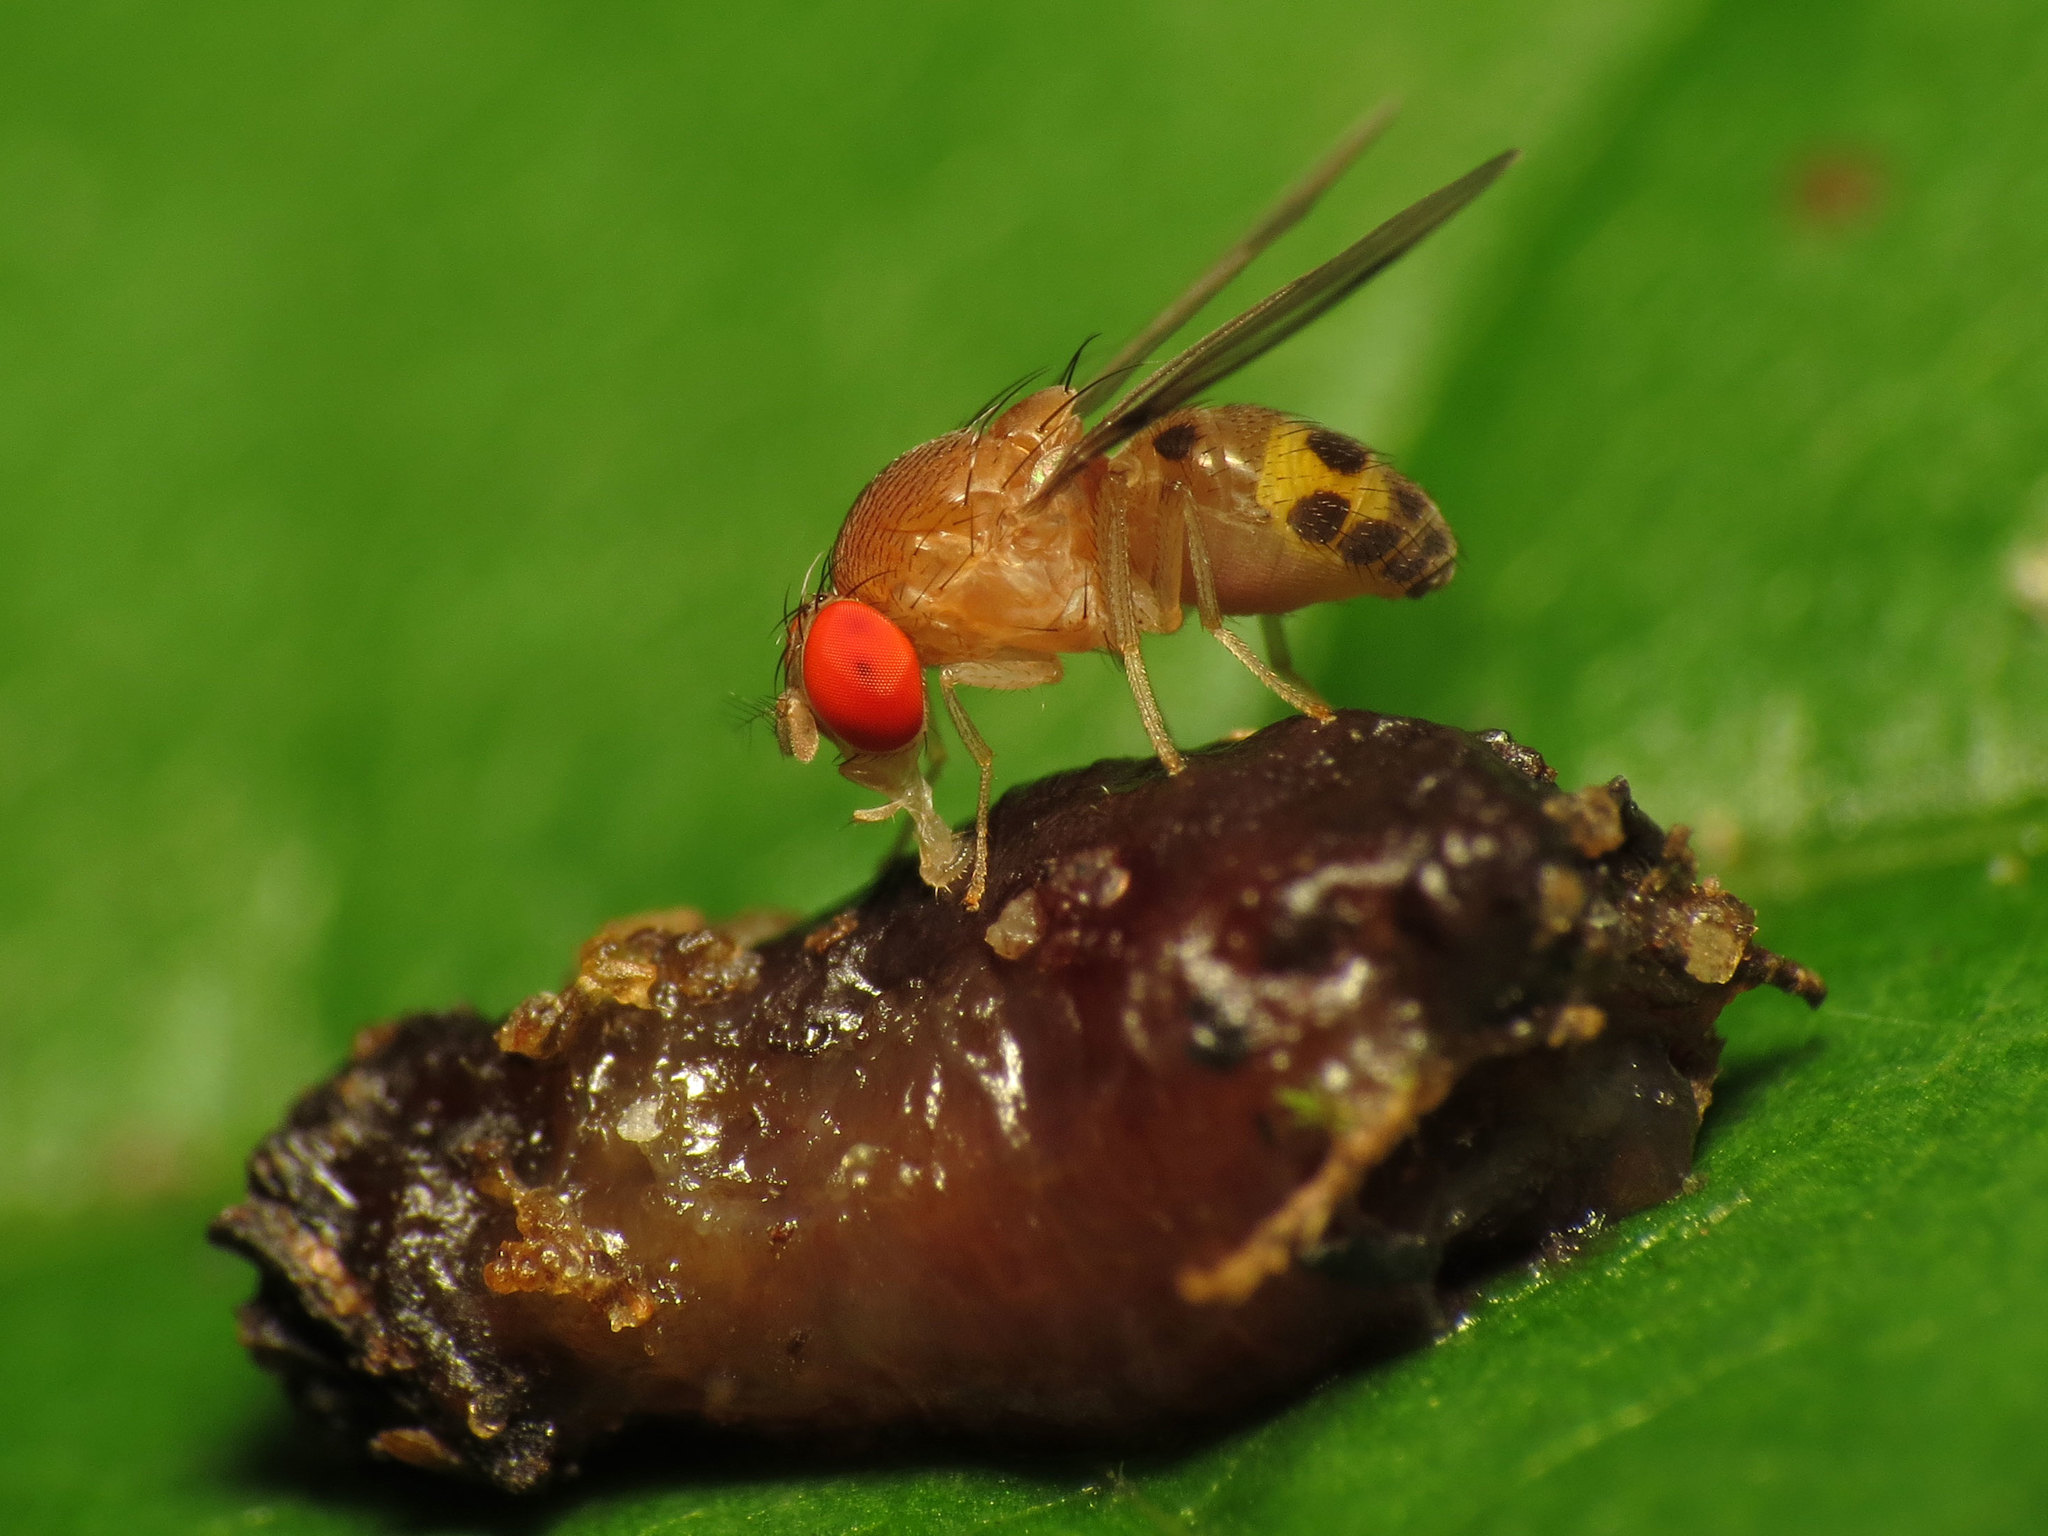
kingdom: Animalia
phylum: Arthropoda
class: Insecta
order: Diptera
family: Drosophilidae
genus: Leucophenga
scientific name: Leucophenga varia
